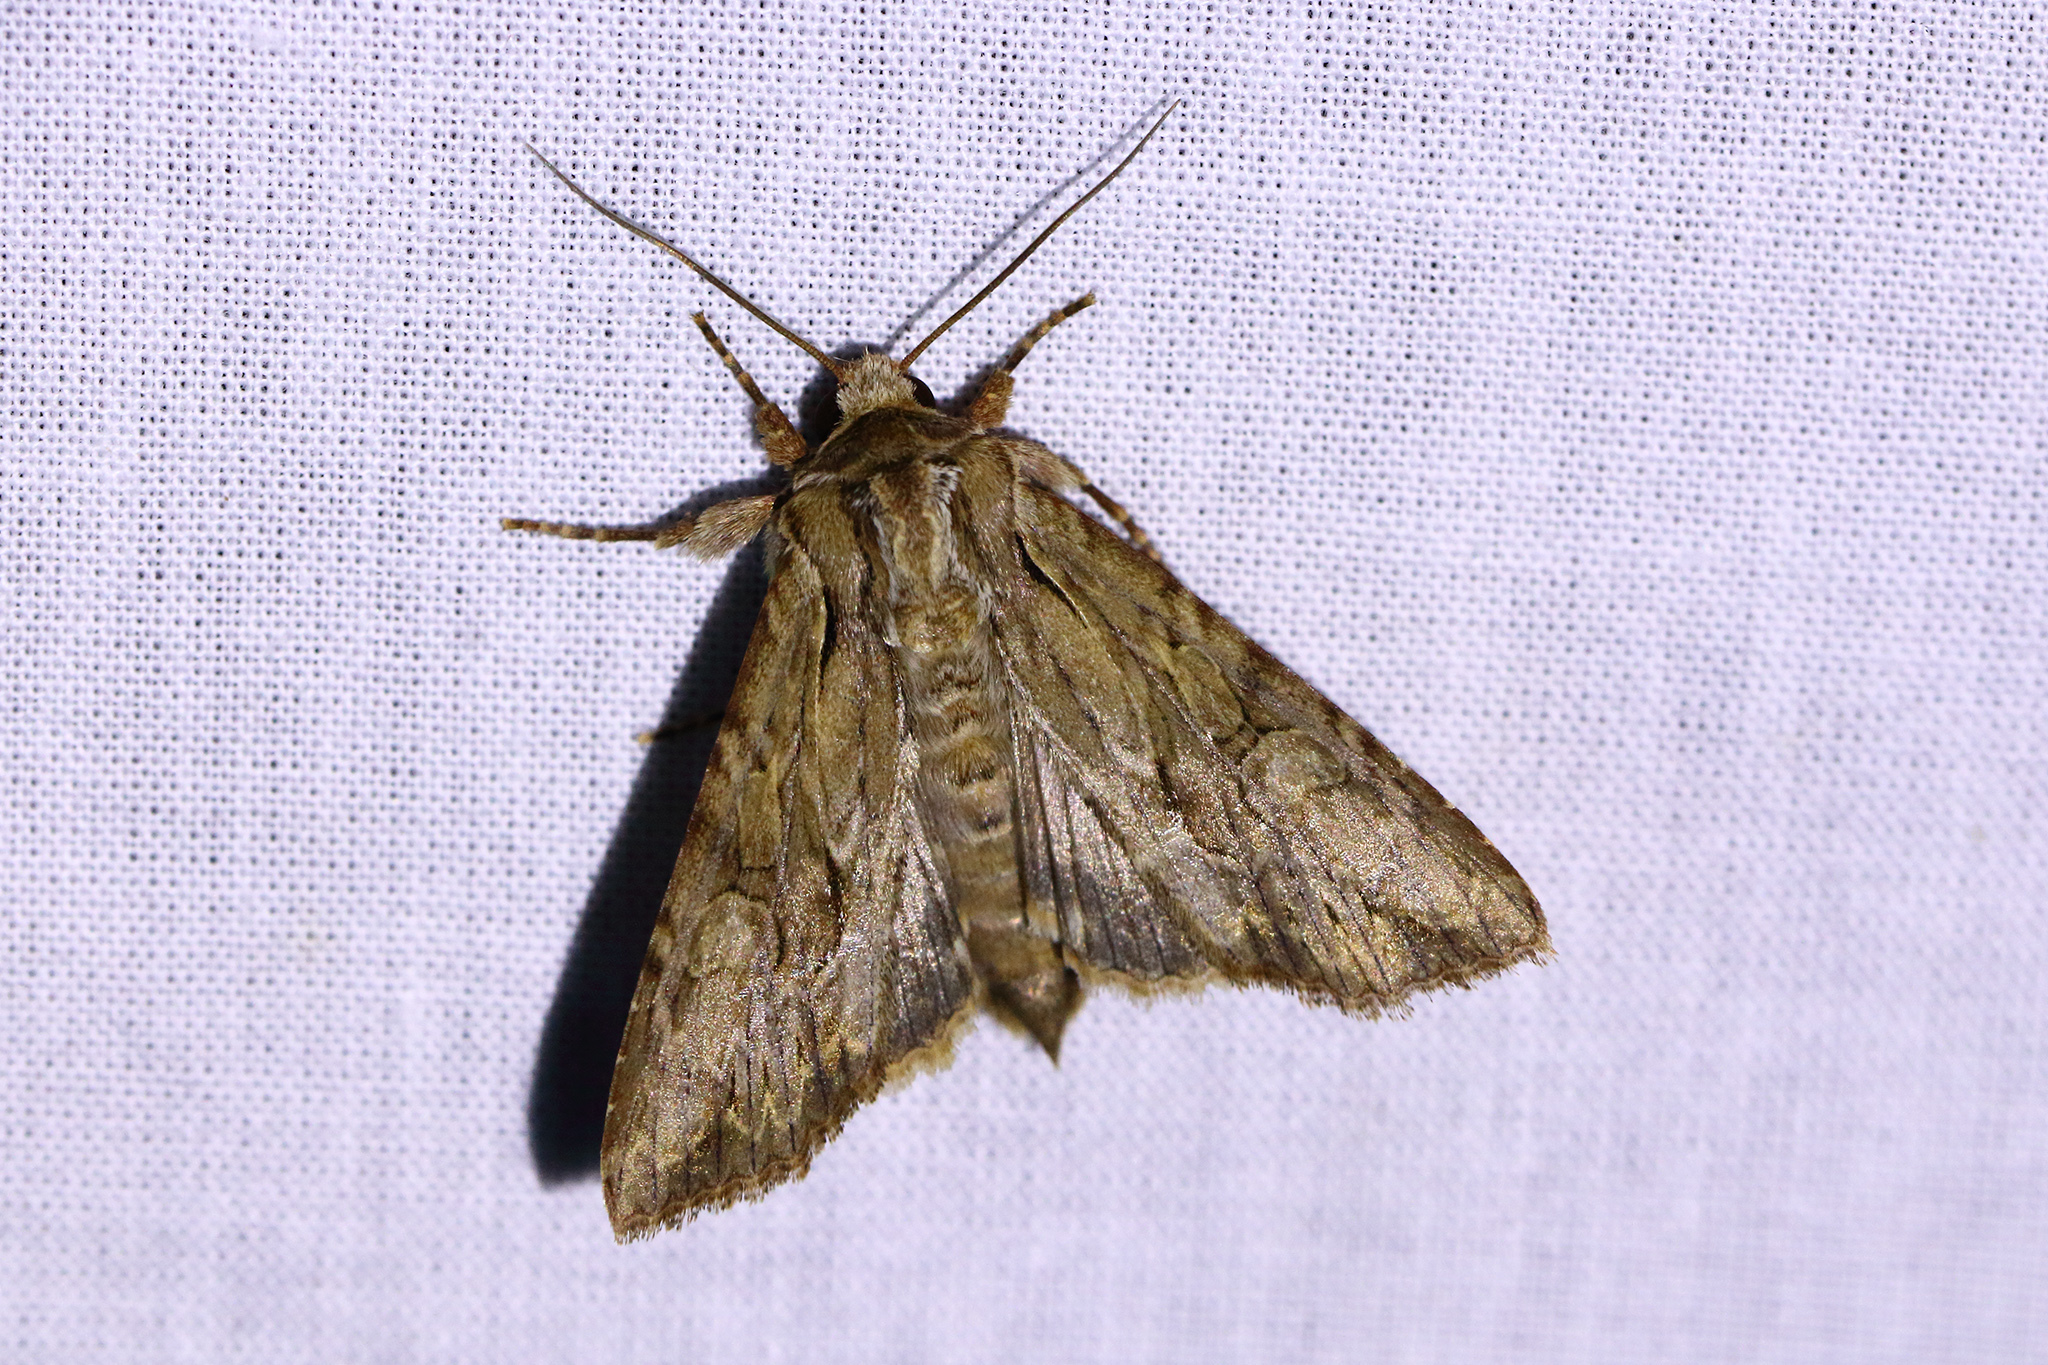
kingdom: Animalia
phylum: Arthropoda
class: Insecta
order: Lepidoptera
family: Noctuidae
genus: Apamea
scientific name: Apamea monoglypha
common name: Dark arches
